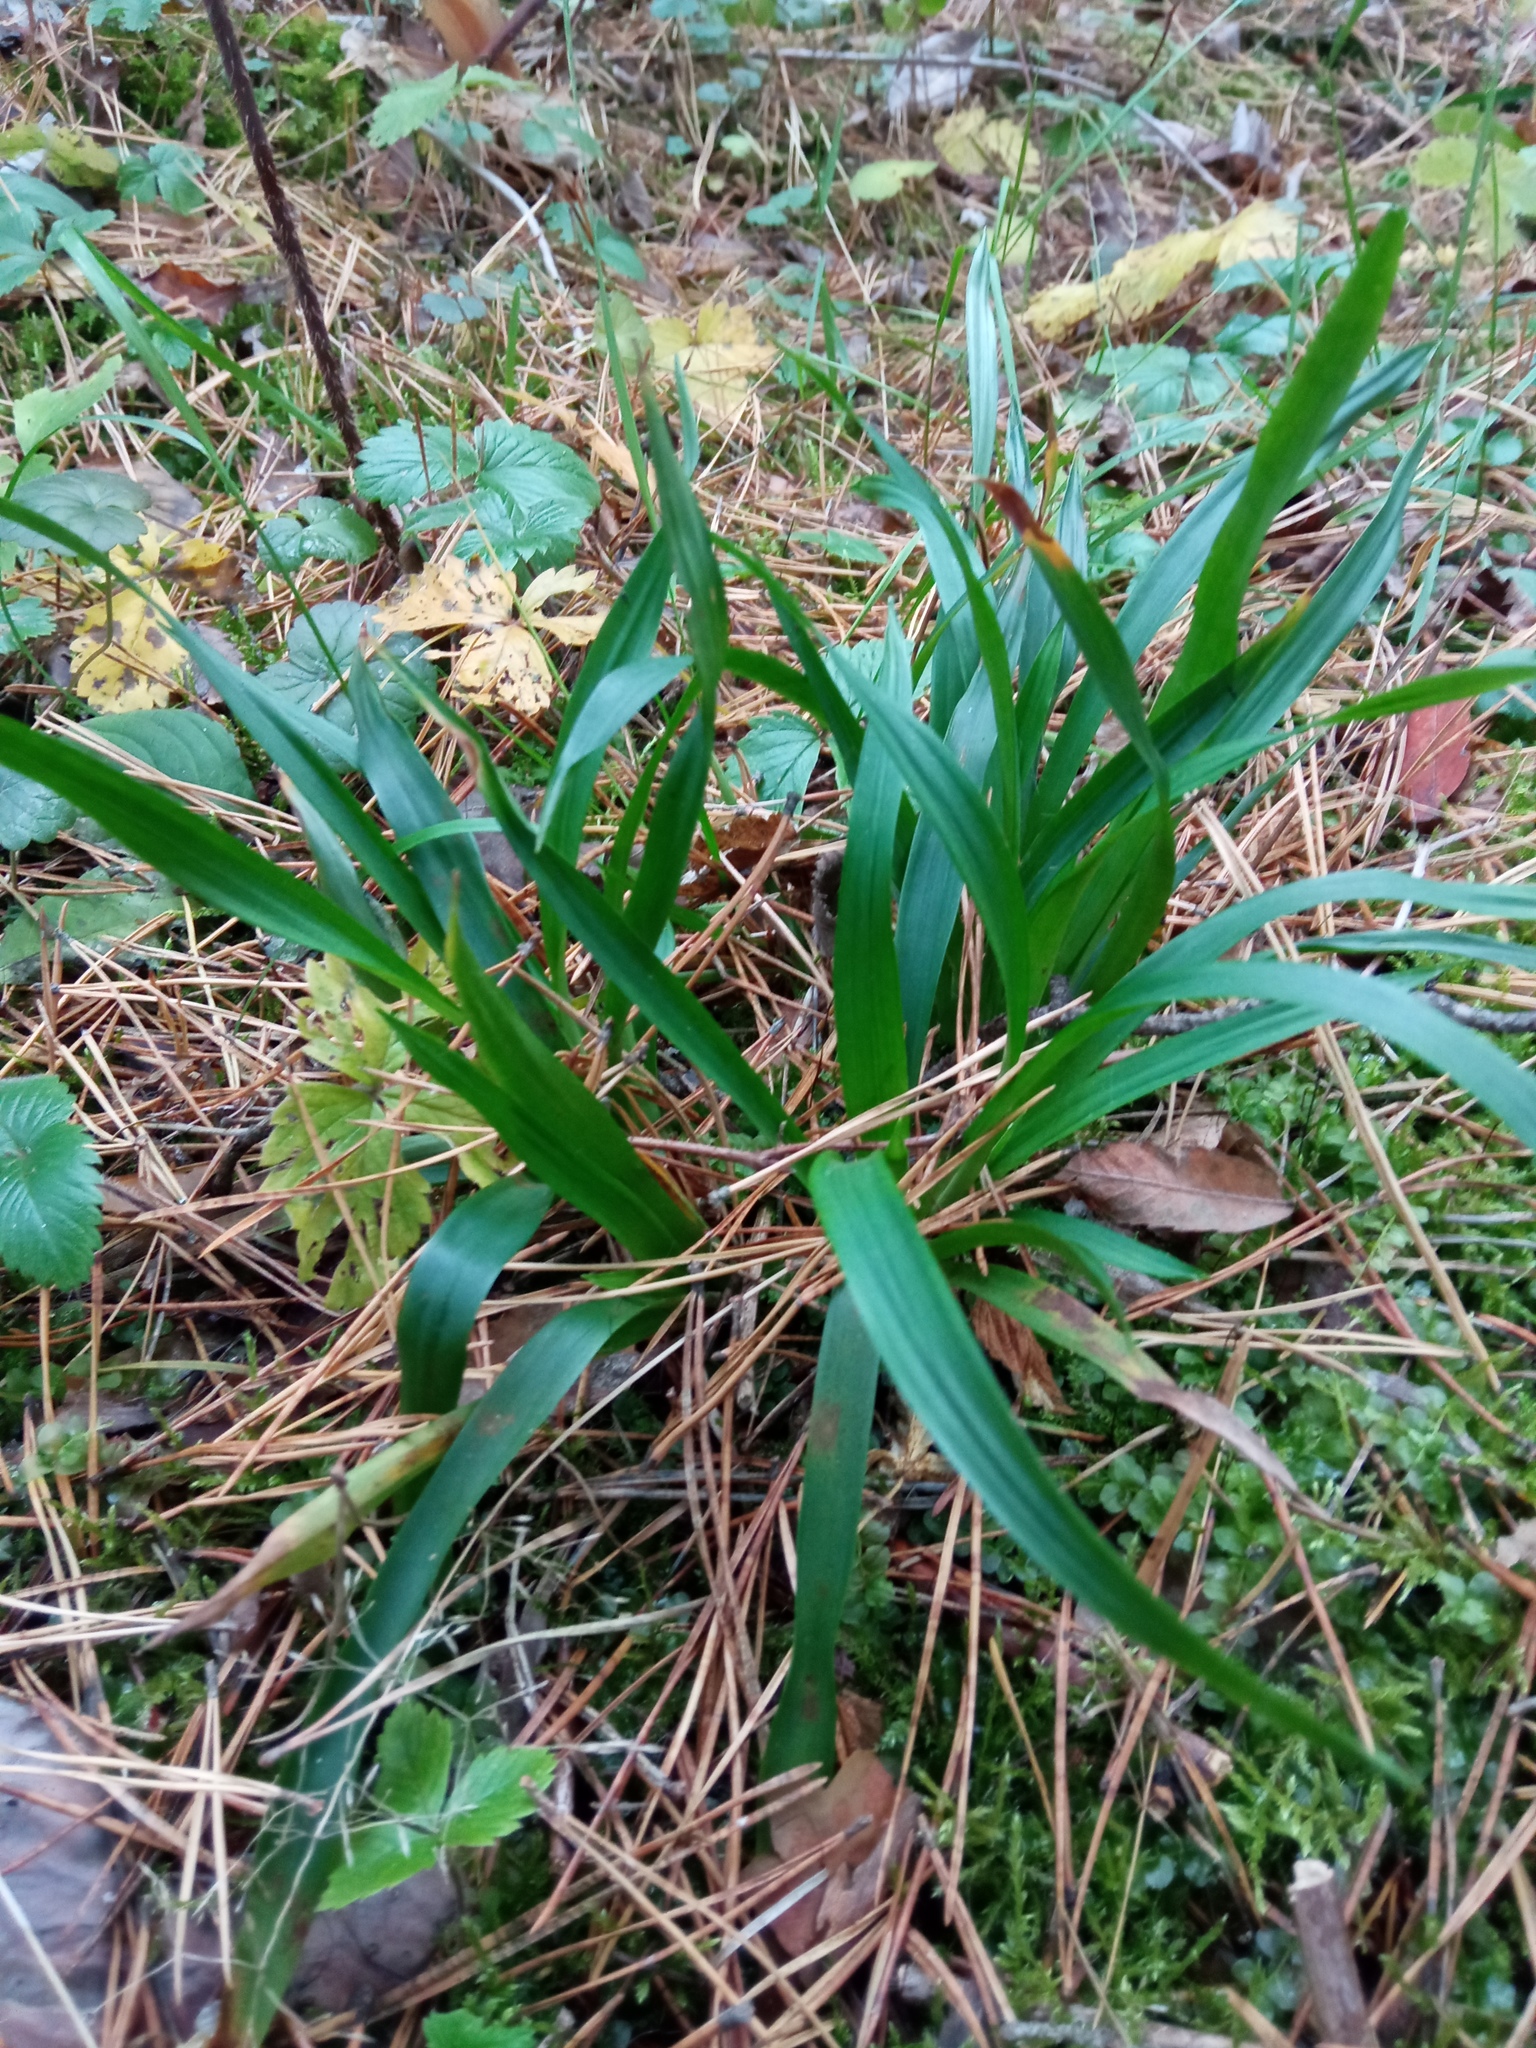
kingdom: Plantae
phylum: Tracheophyta
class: Liliopsida
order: Poales
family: Juncaceae
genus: Luzula
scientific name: Luzula pilosa
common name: Hairy wood-rush
